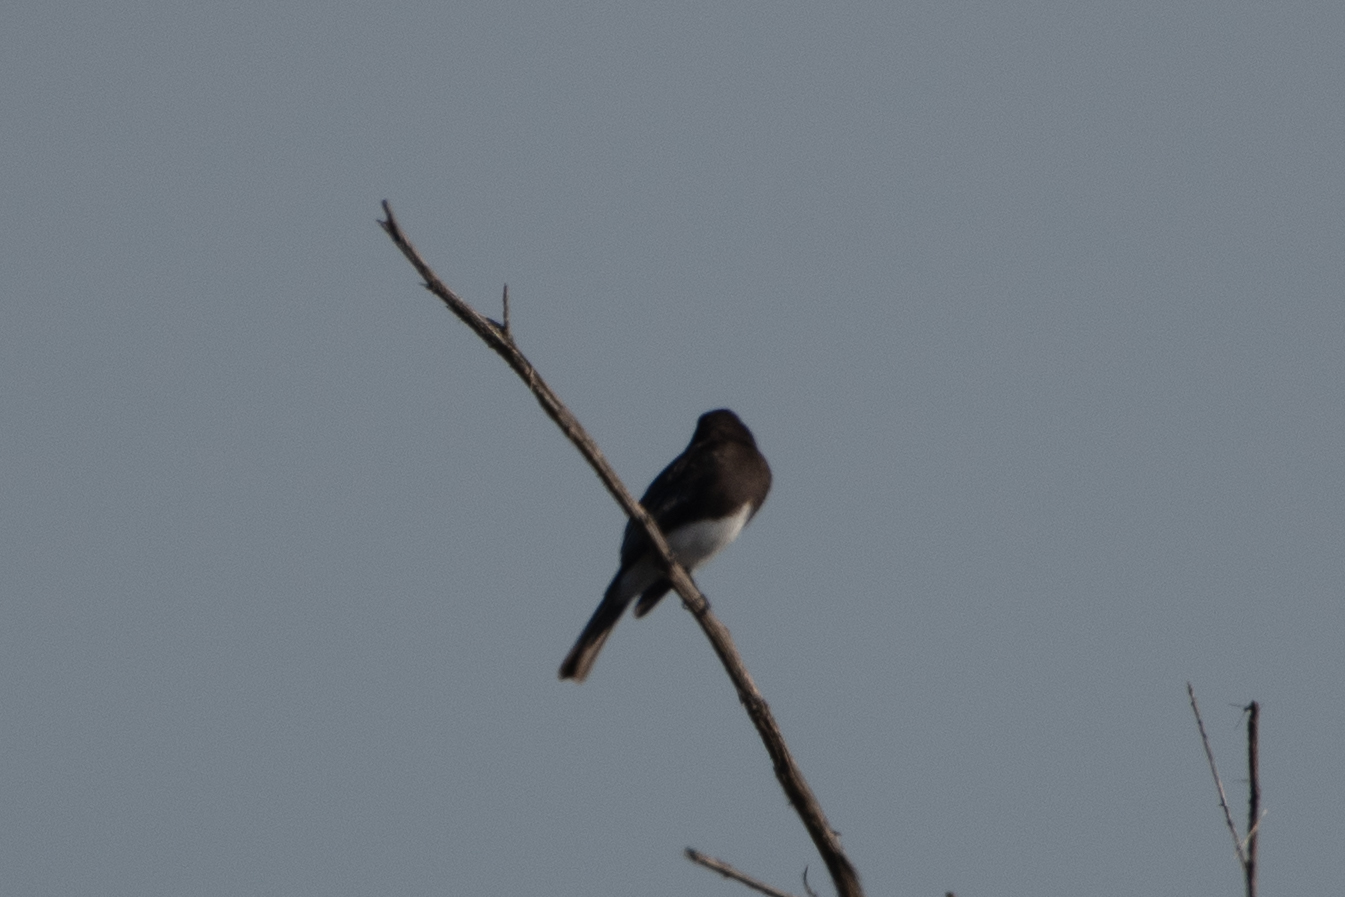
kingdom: Animalia
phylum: Chordata
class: Aves
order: Passeriformes
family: Tyrannidae
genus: Sayornis
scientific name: Sayornis nigricans
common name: Black phoebe
